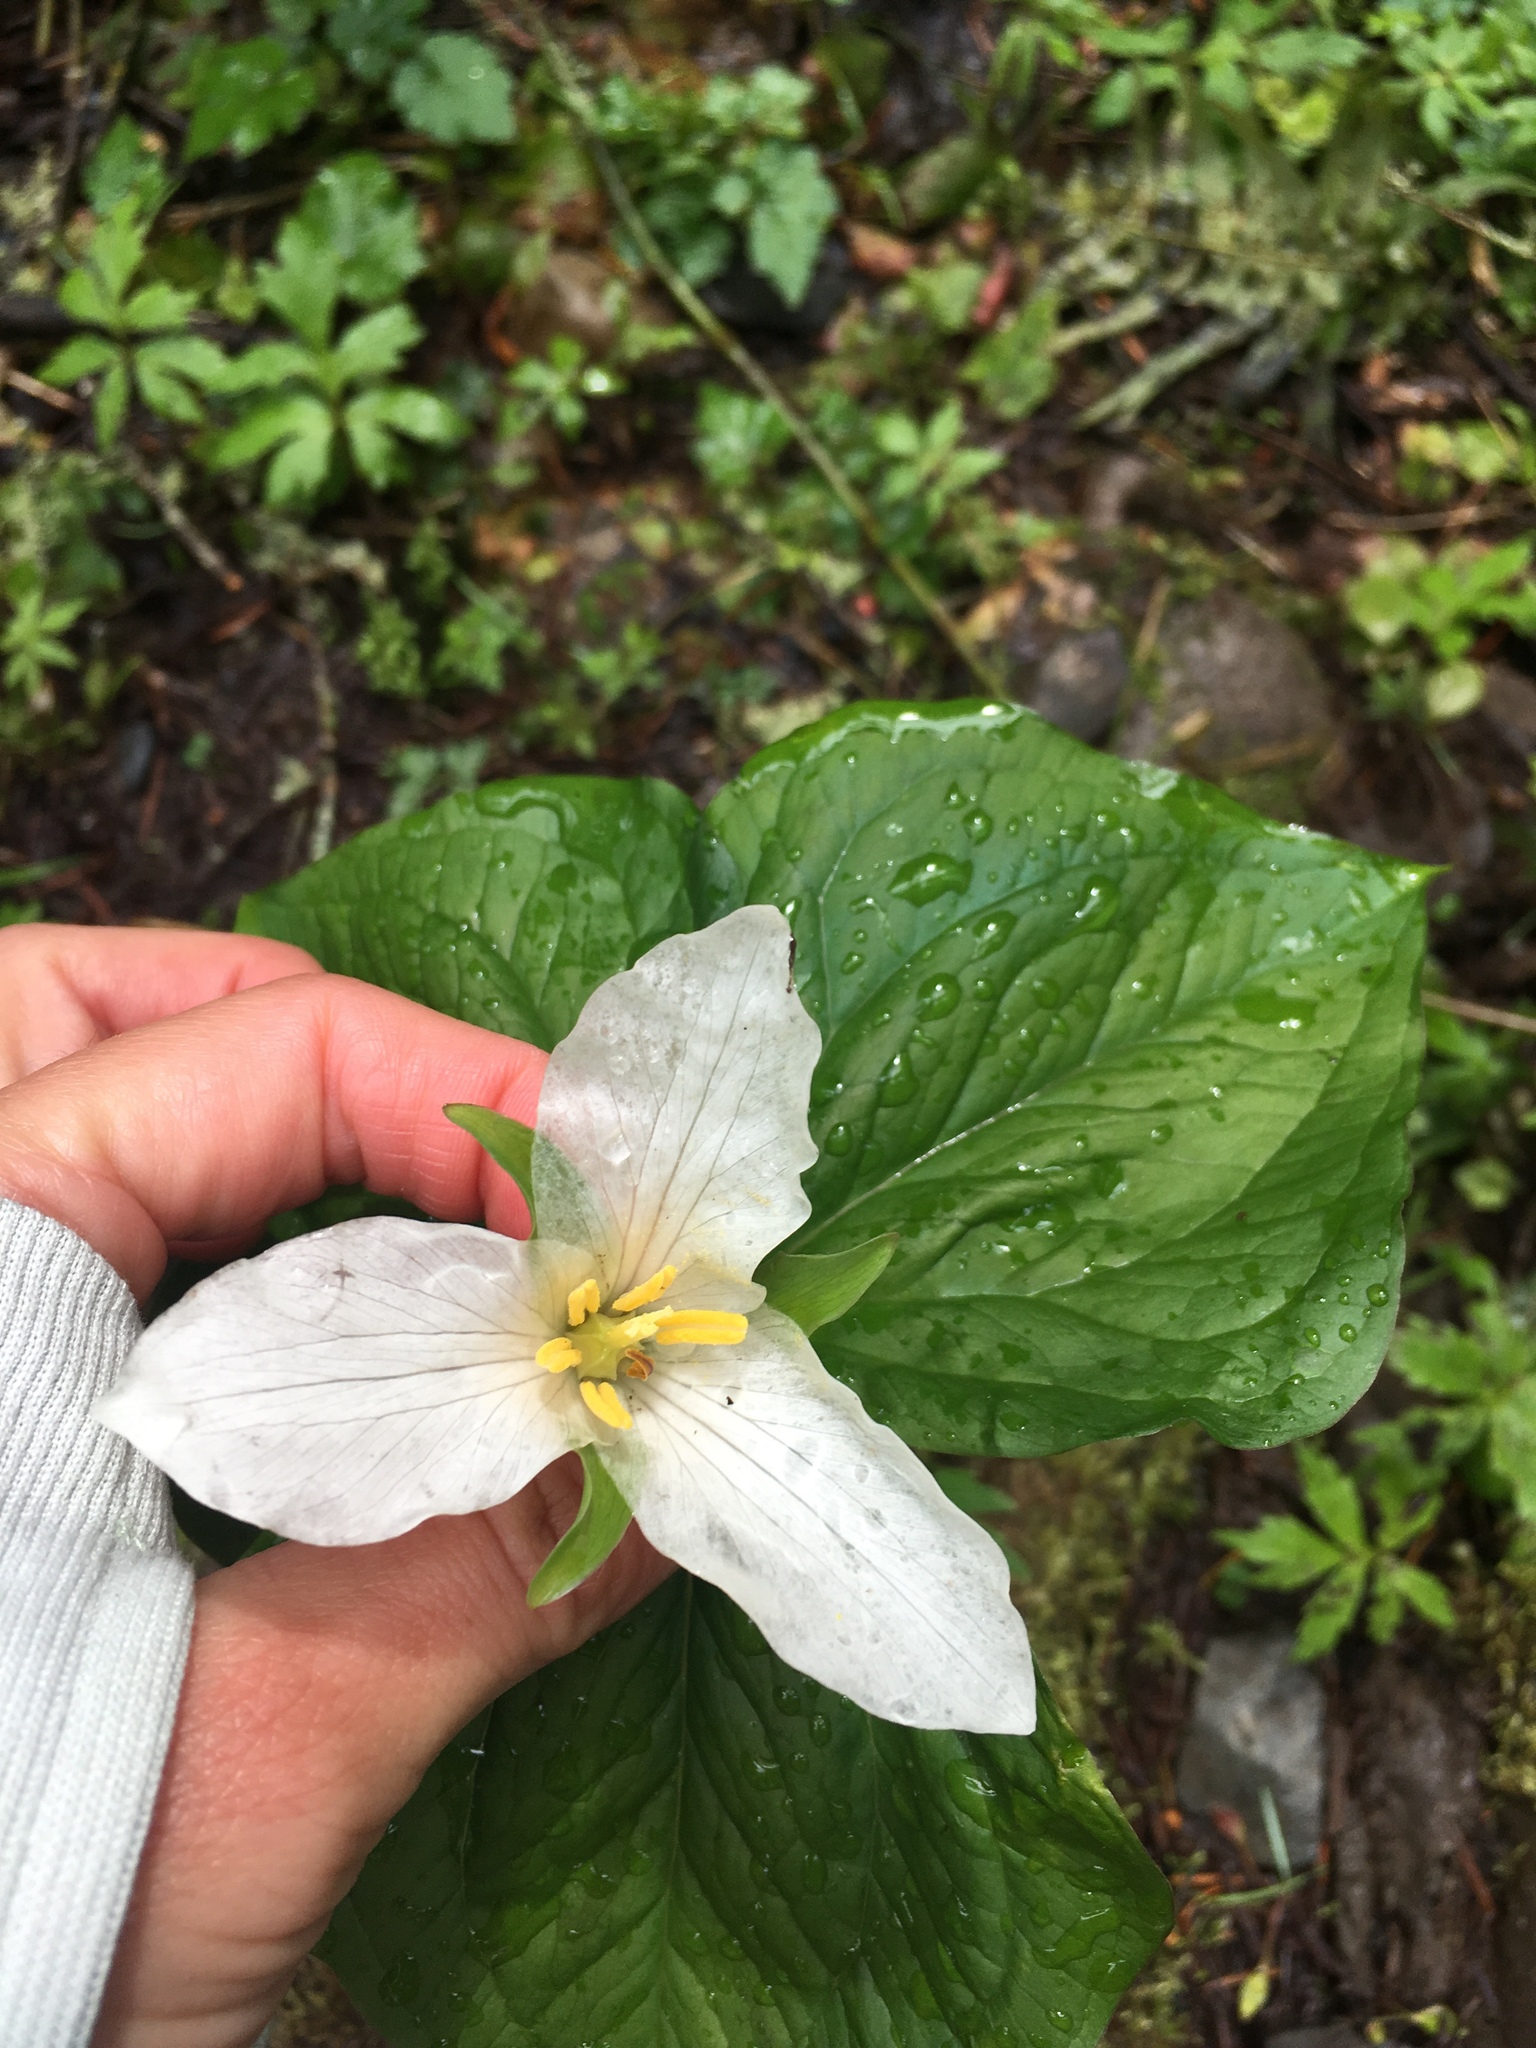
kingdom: Plantae
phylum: Tracheophyta
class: Liliopsida
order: Liliales
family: Melanthiaceae
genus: Trillium
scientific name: Trillium ovatum
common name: Pacific trillium
